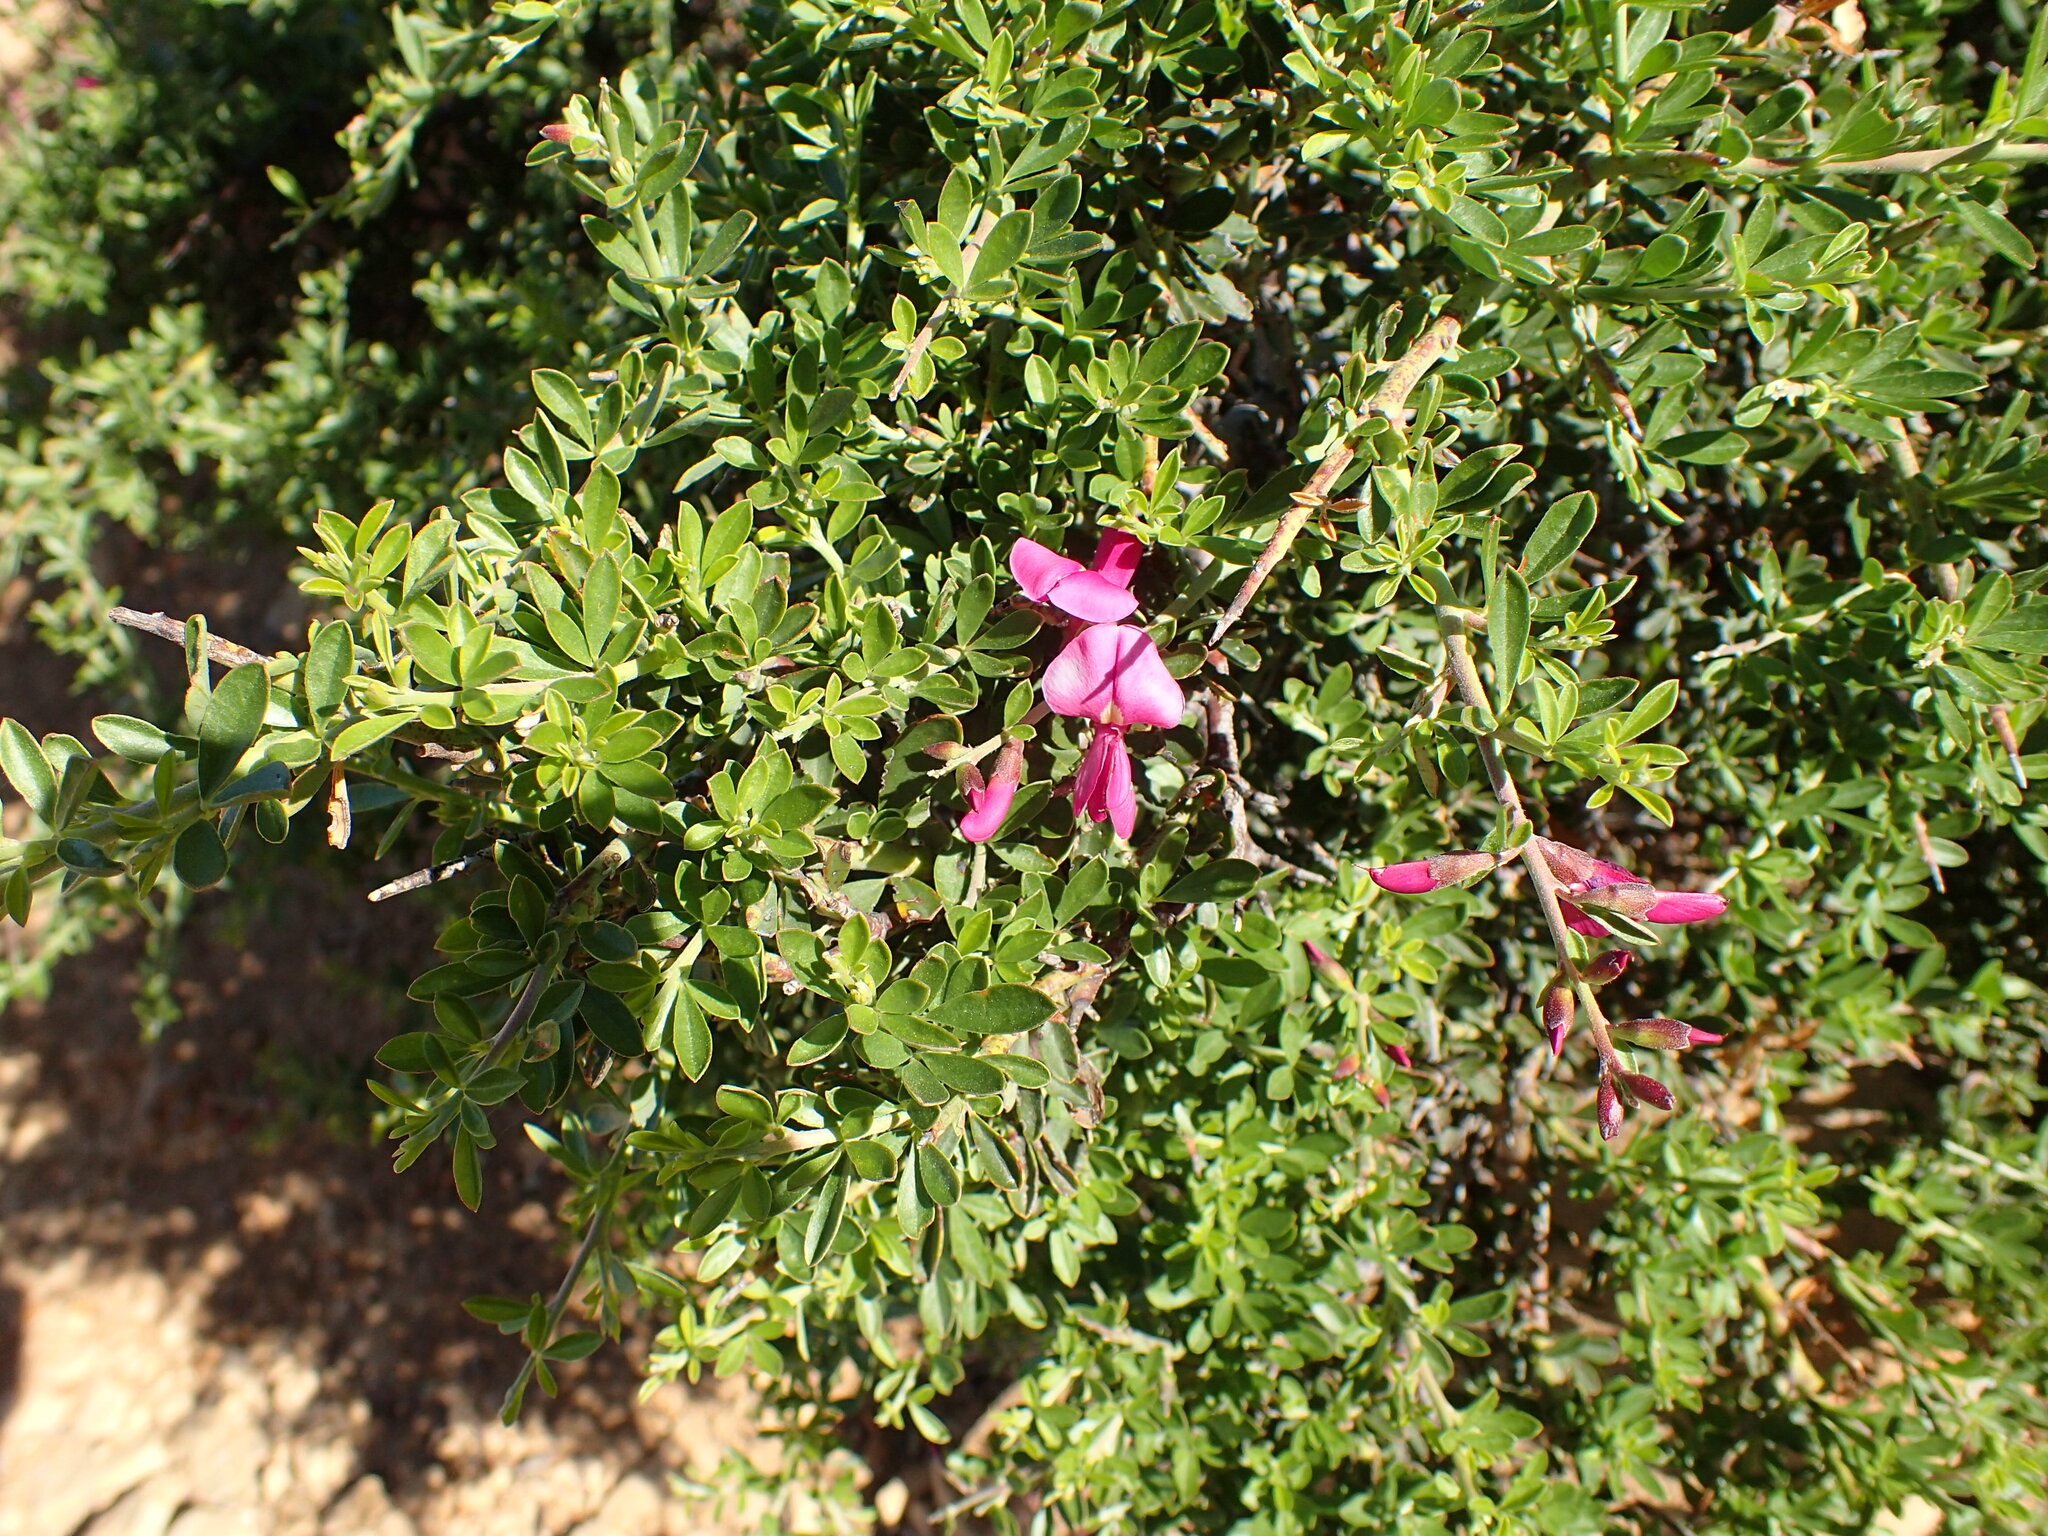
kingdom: Plantae
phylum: Tracheophyta
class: Magnoliopsida
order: Fabales
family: Fabaceae
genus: Pickeringia
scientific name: Pickeringia montana
